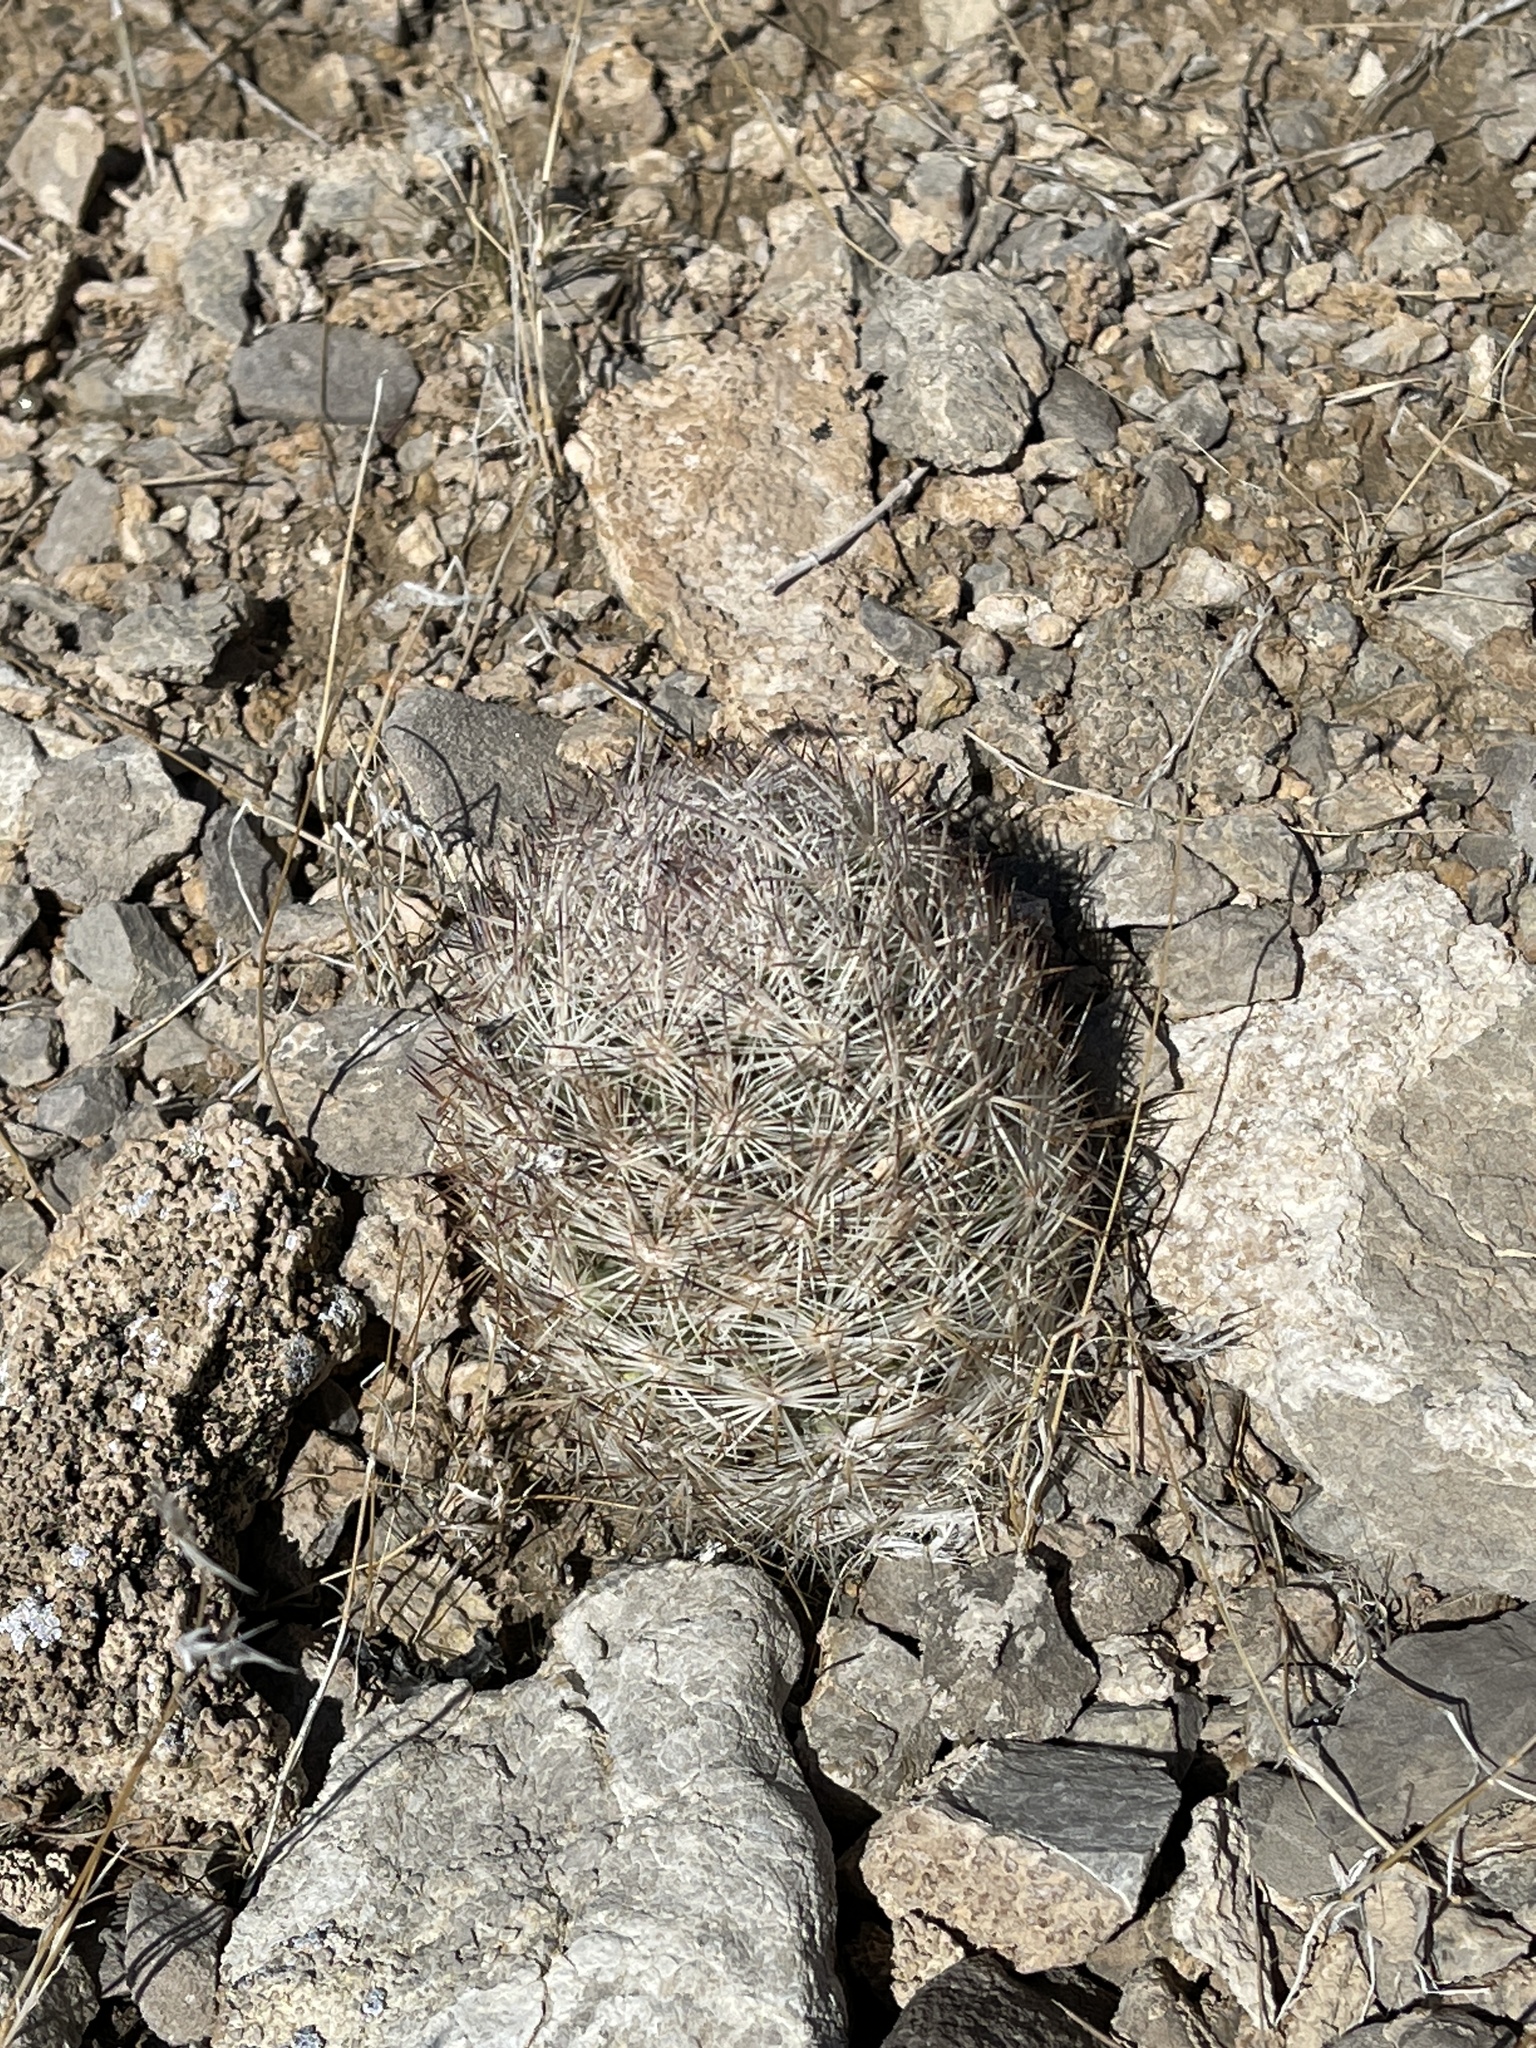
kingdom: Plantae
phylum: Tracheophyta
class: Magnoliopsida
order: Caryophyllales
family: Cactaceae
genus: Pelecyphora
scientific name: Pelecyphora dasyacantha
